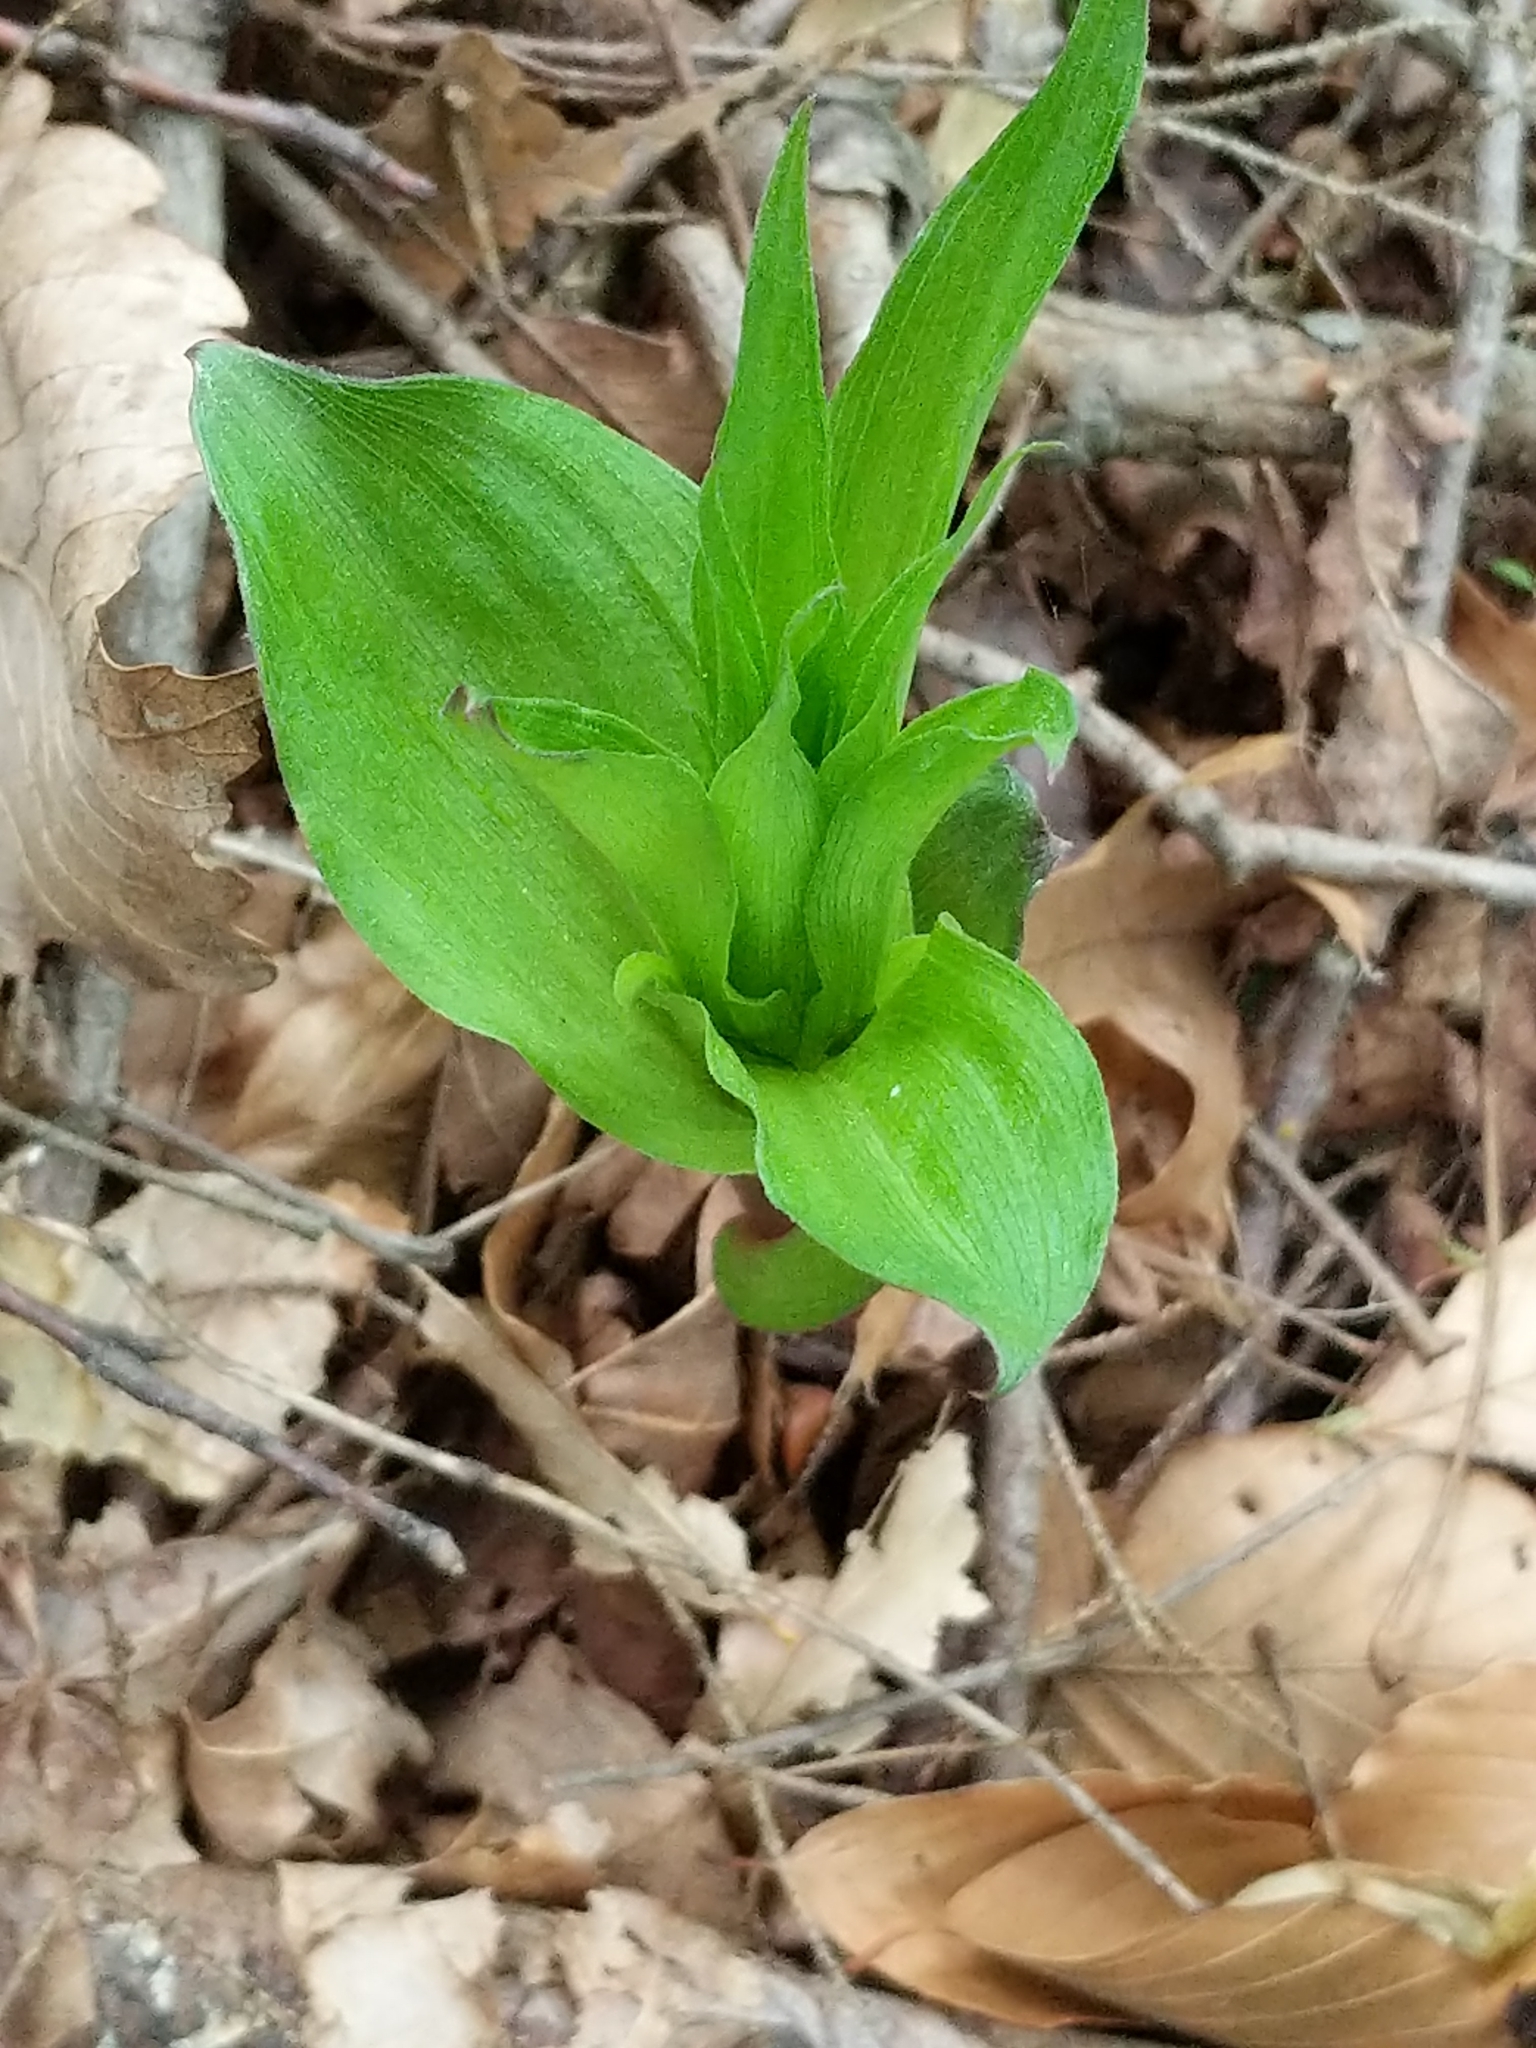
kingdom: Plantae
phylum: Tracheophyta
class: Liliopsida
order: Asparagales
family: Orchidaceae
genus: Epipactis
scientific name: Epipactis helleborine
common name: Broad-leaved helleborine
